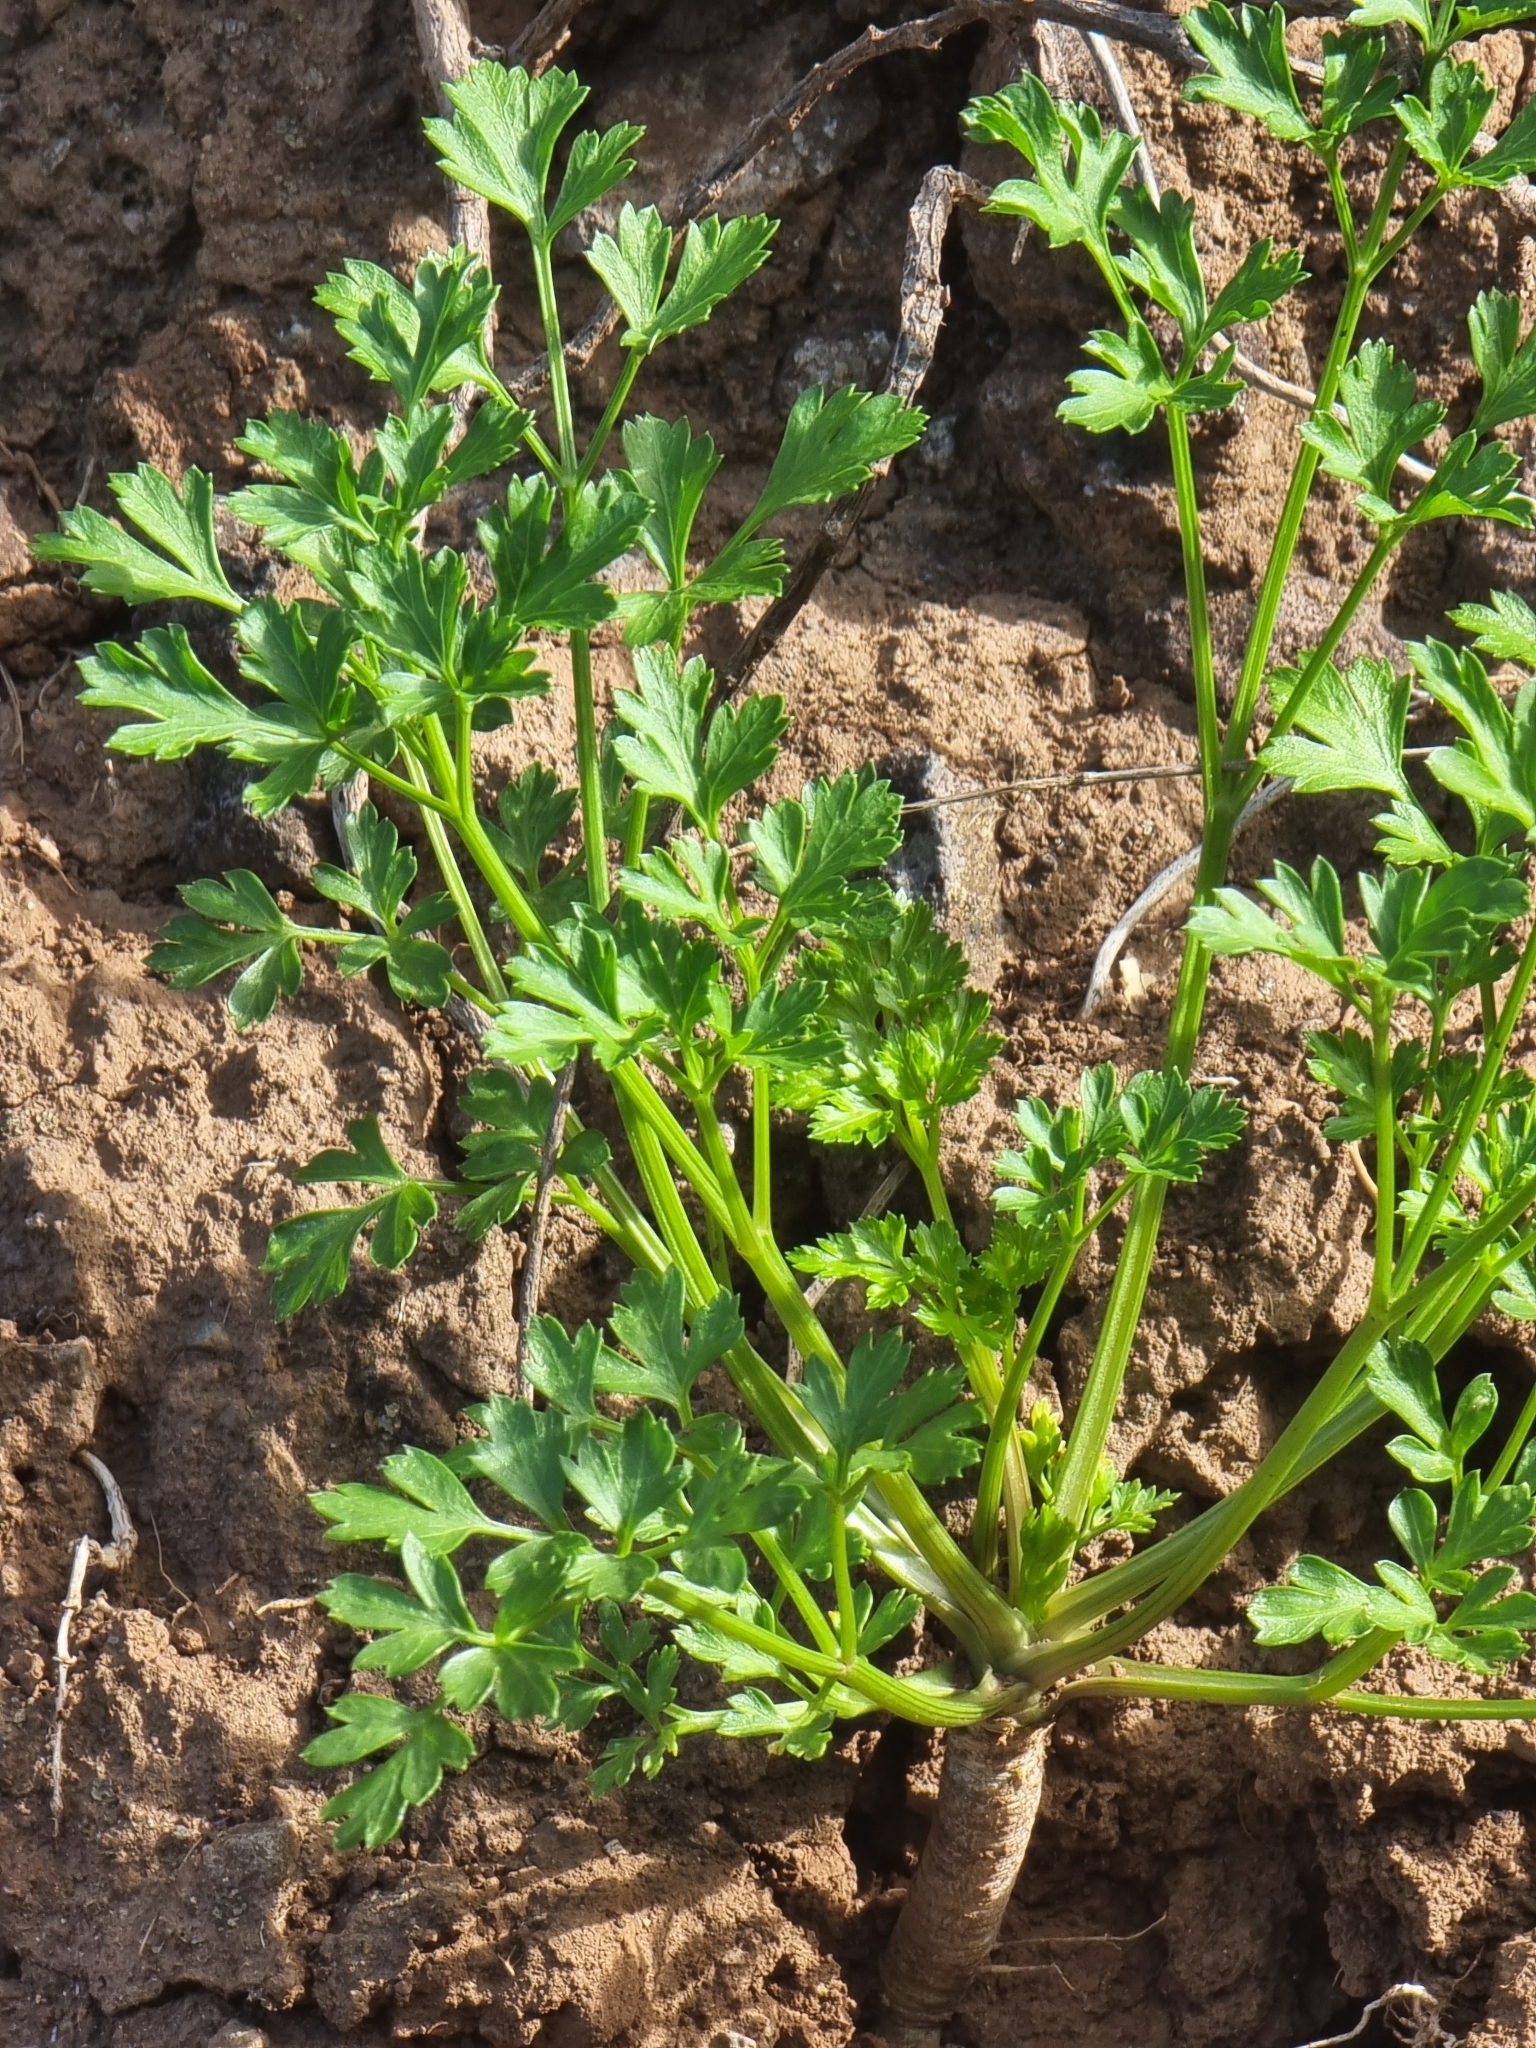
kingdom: Plantae
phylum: Tracheophyta
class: Magnoliopsida
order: Apiales
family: Apiaceae
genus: Petroselinum
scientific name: Petroselinum crispum
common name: Parsley
